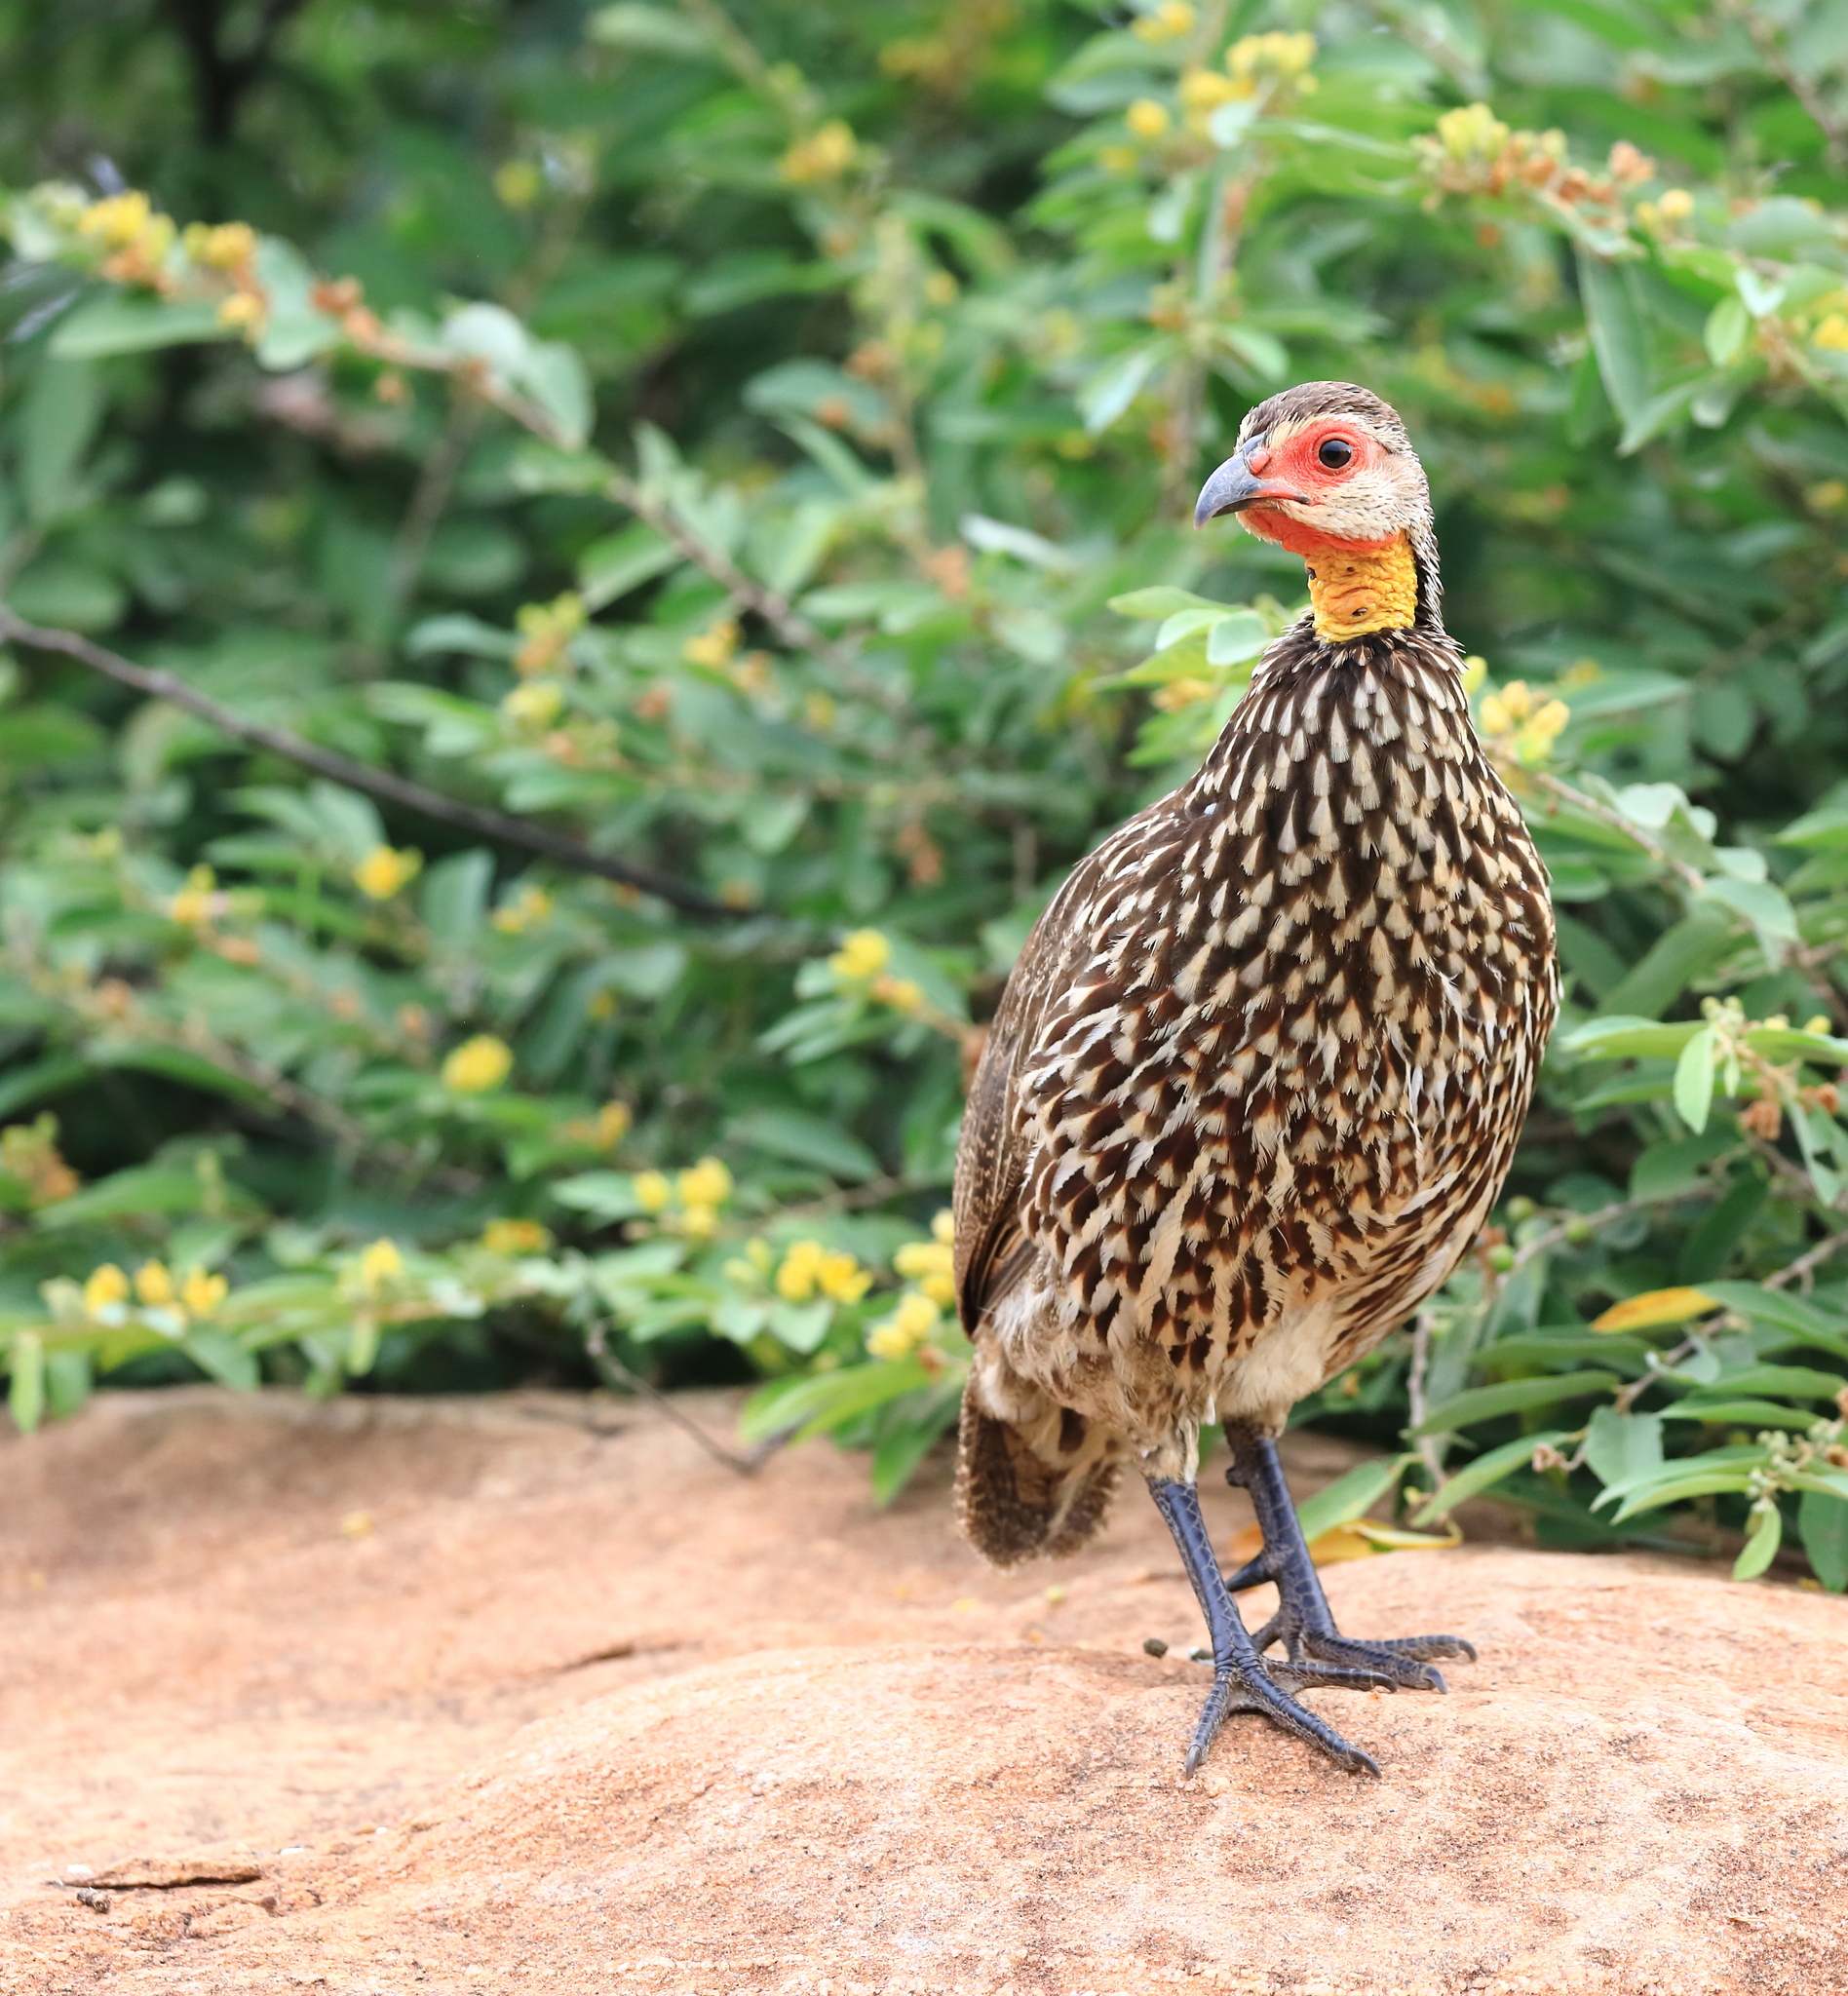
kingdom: Animalia
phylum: Chordata
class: Aves
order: Galliformes
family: Phasianidae
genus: Pternistis
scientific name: Pternistis leucoscepus
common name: Yellow-necked spurfowl
